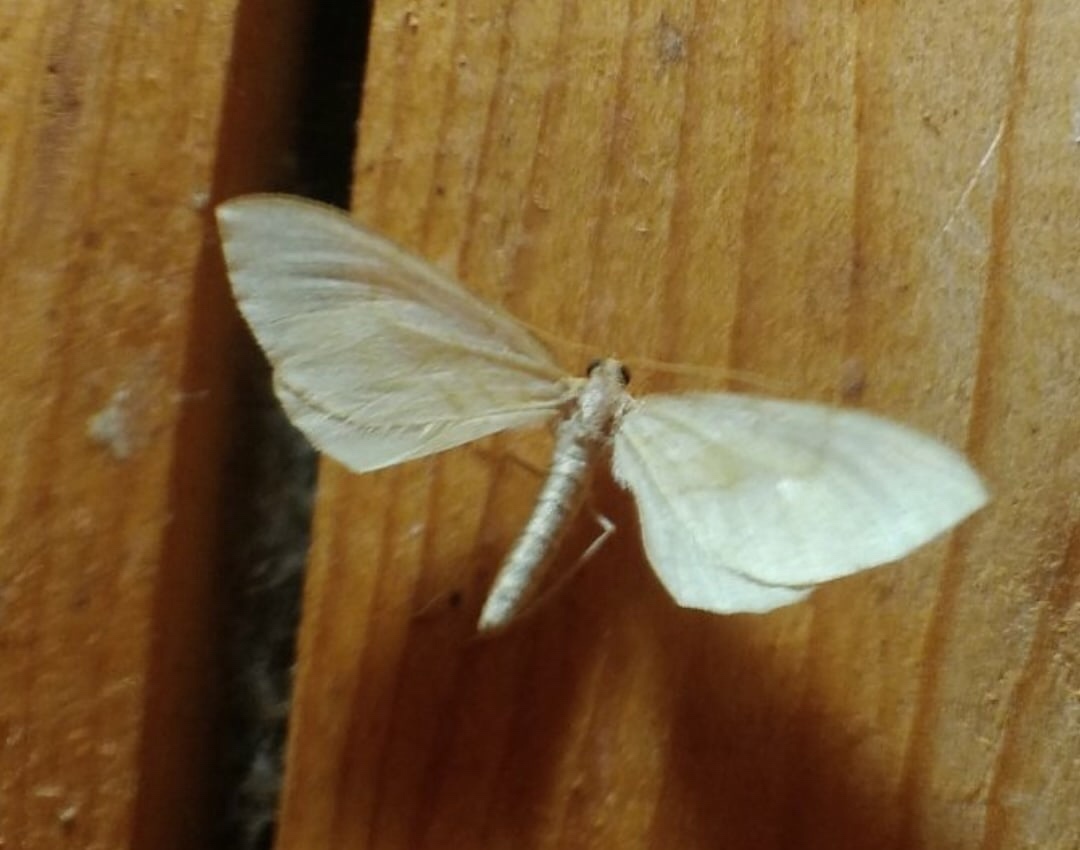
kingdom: Animalia
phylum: Arthropoda
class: Insecta
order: Lepidoptera
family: Geometridae
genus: Eulithis
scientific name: Eulithis pyraliata
